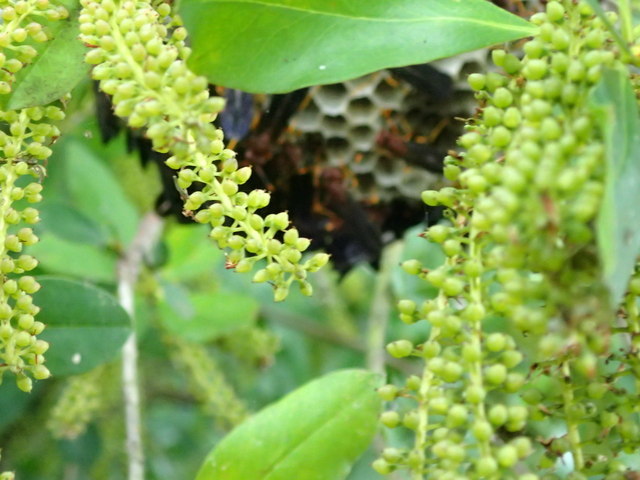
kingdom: Plantae
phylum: Tracheophyta
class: Magnoliopsida
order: Ericales
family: Cyrillaceae
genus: Cyrilla
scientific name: Cyrilla racemiflora
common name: Black titi
